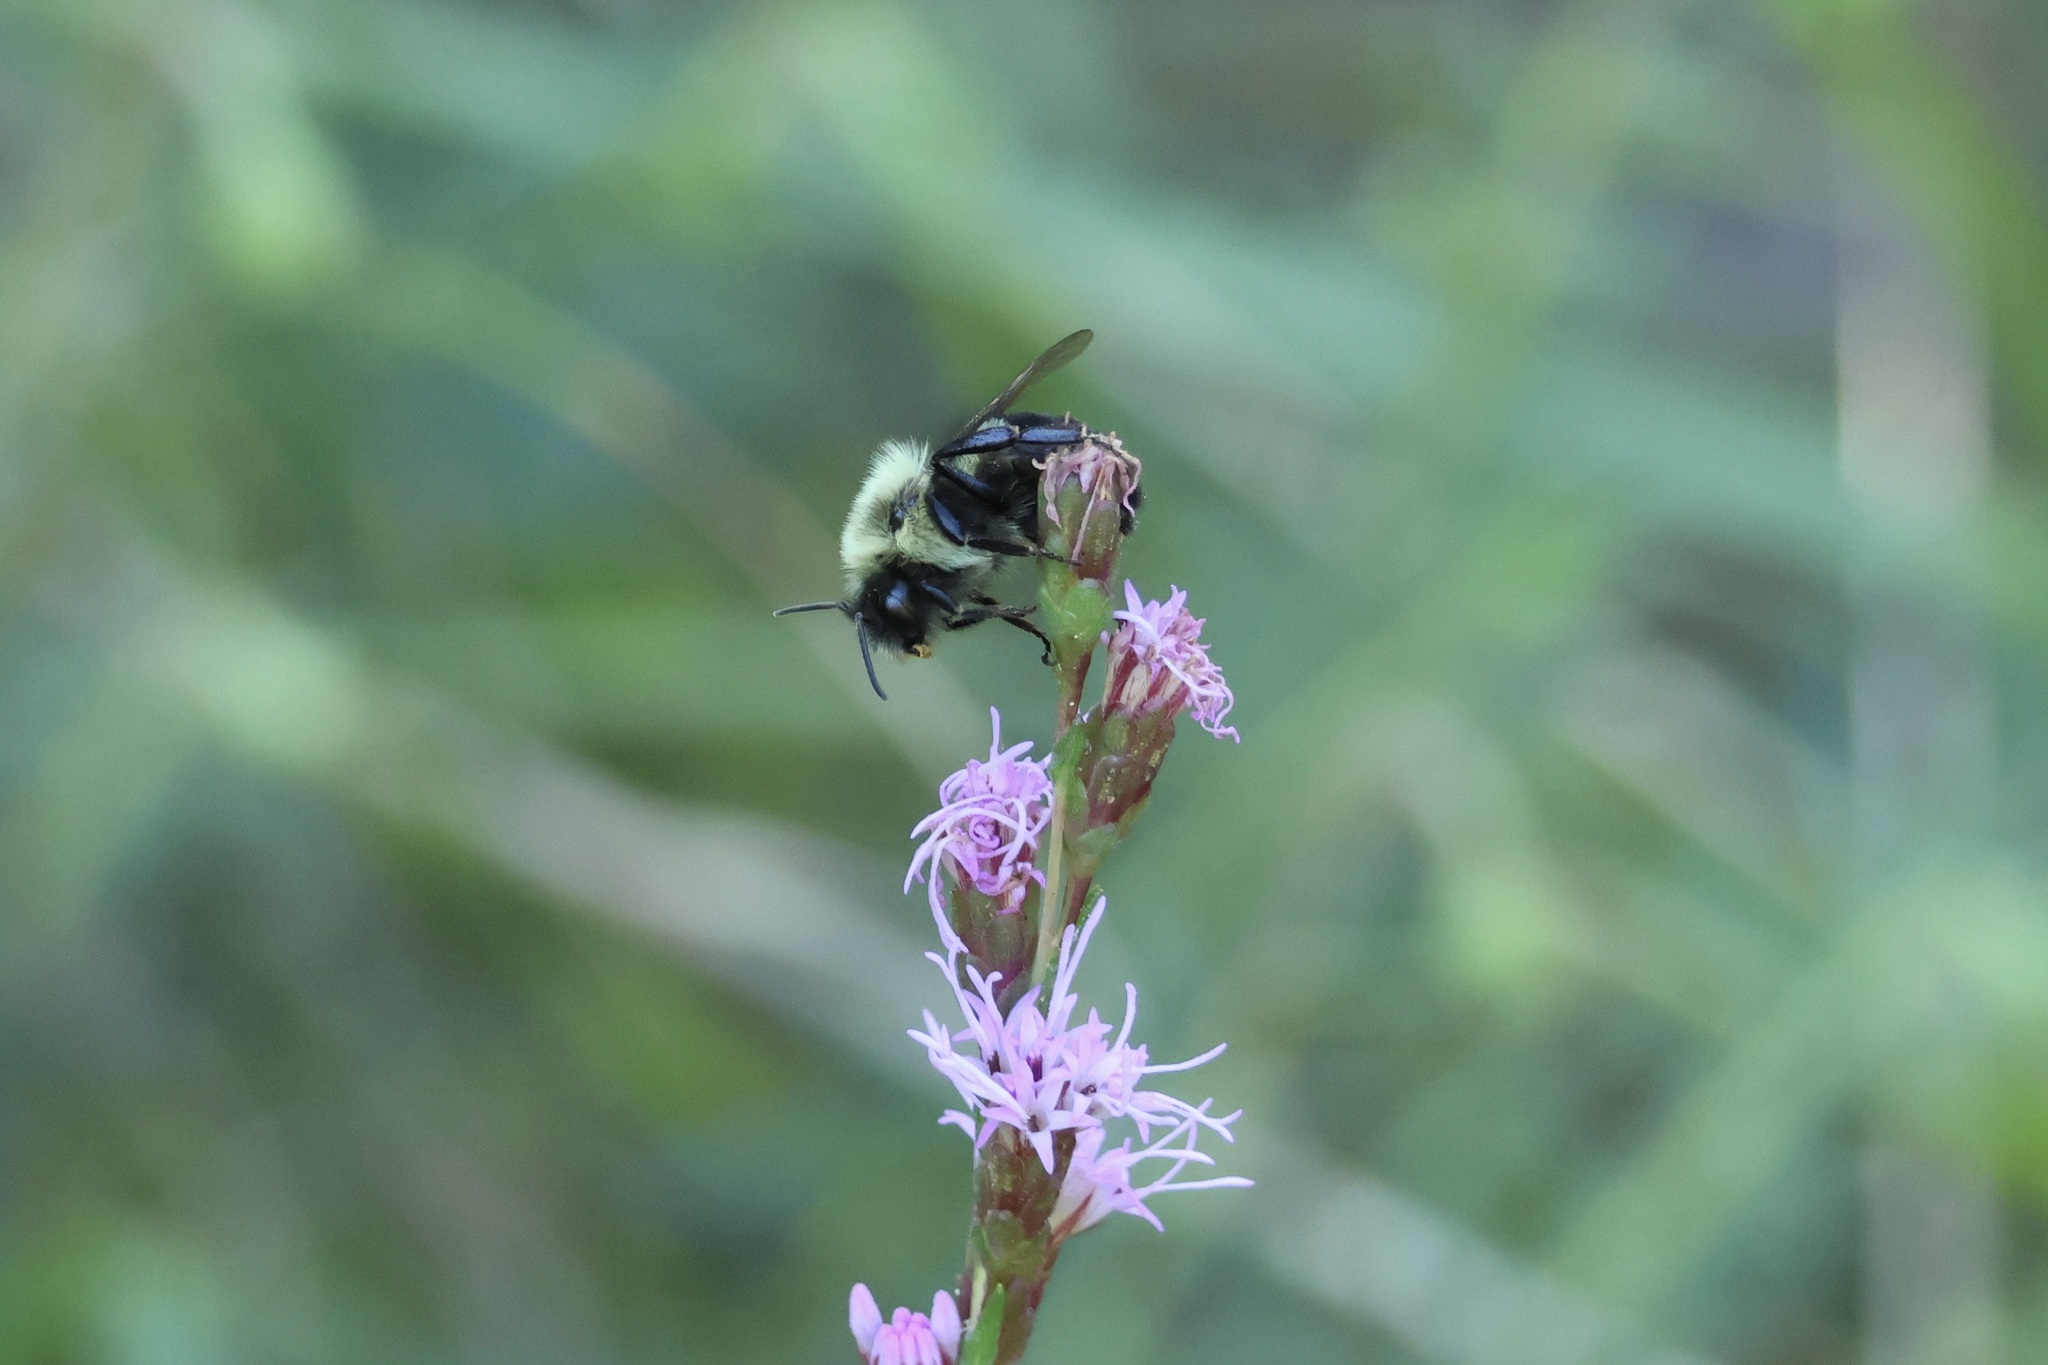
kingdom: Animalia
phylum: Arthropoda
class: Insecta
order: Hymenoptera
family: Apidae
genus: Bombus
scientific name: Bombus impatiens
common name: Common eastern bumble bee
